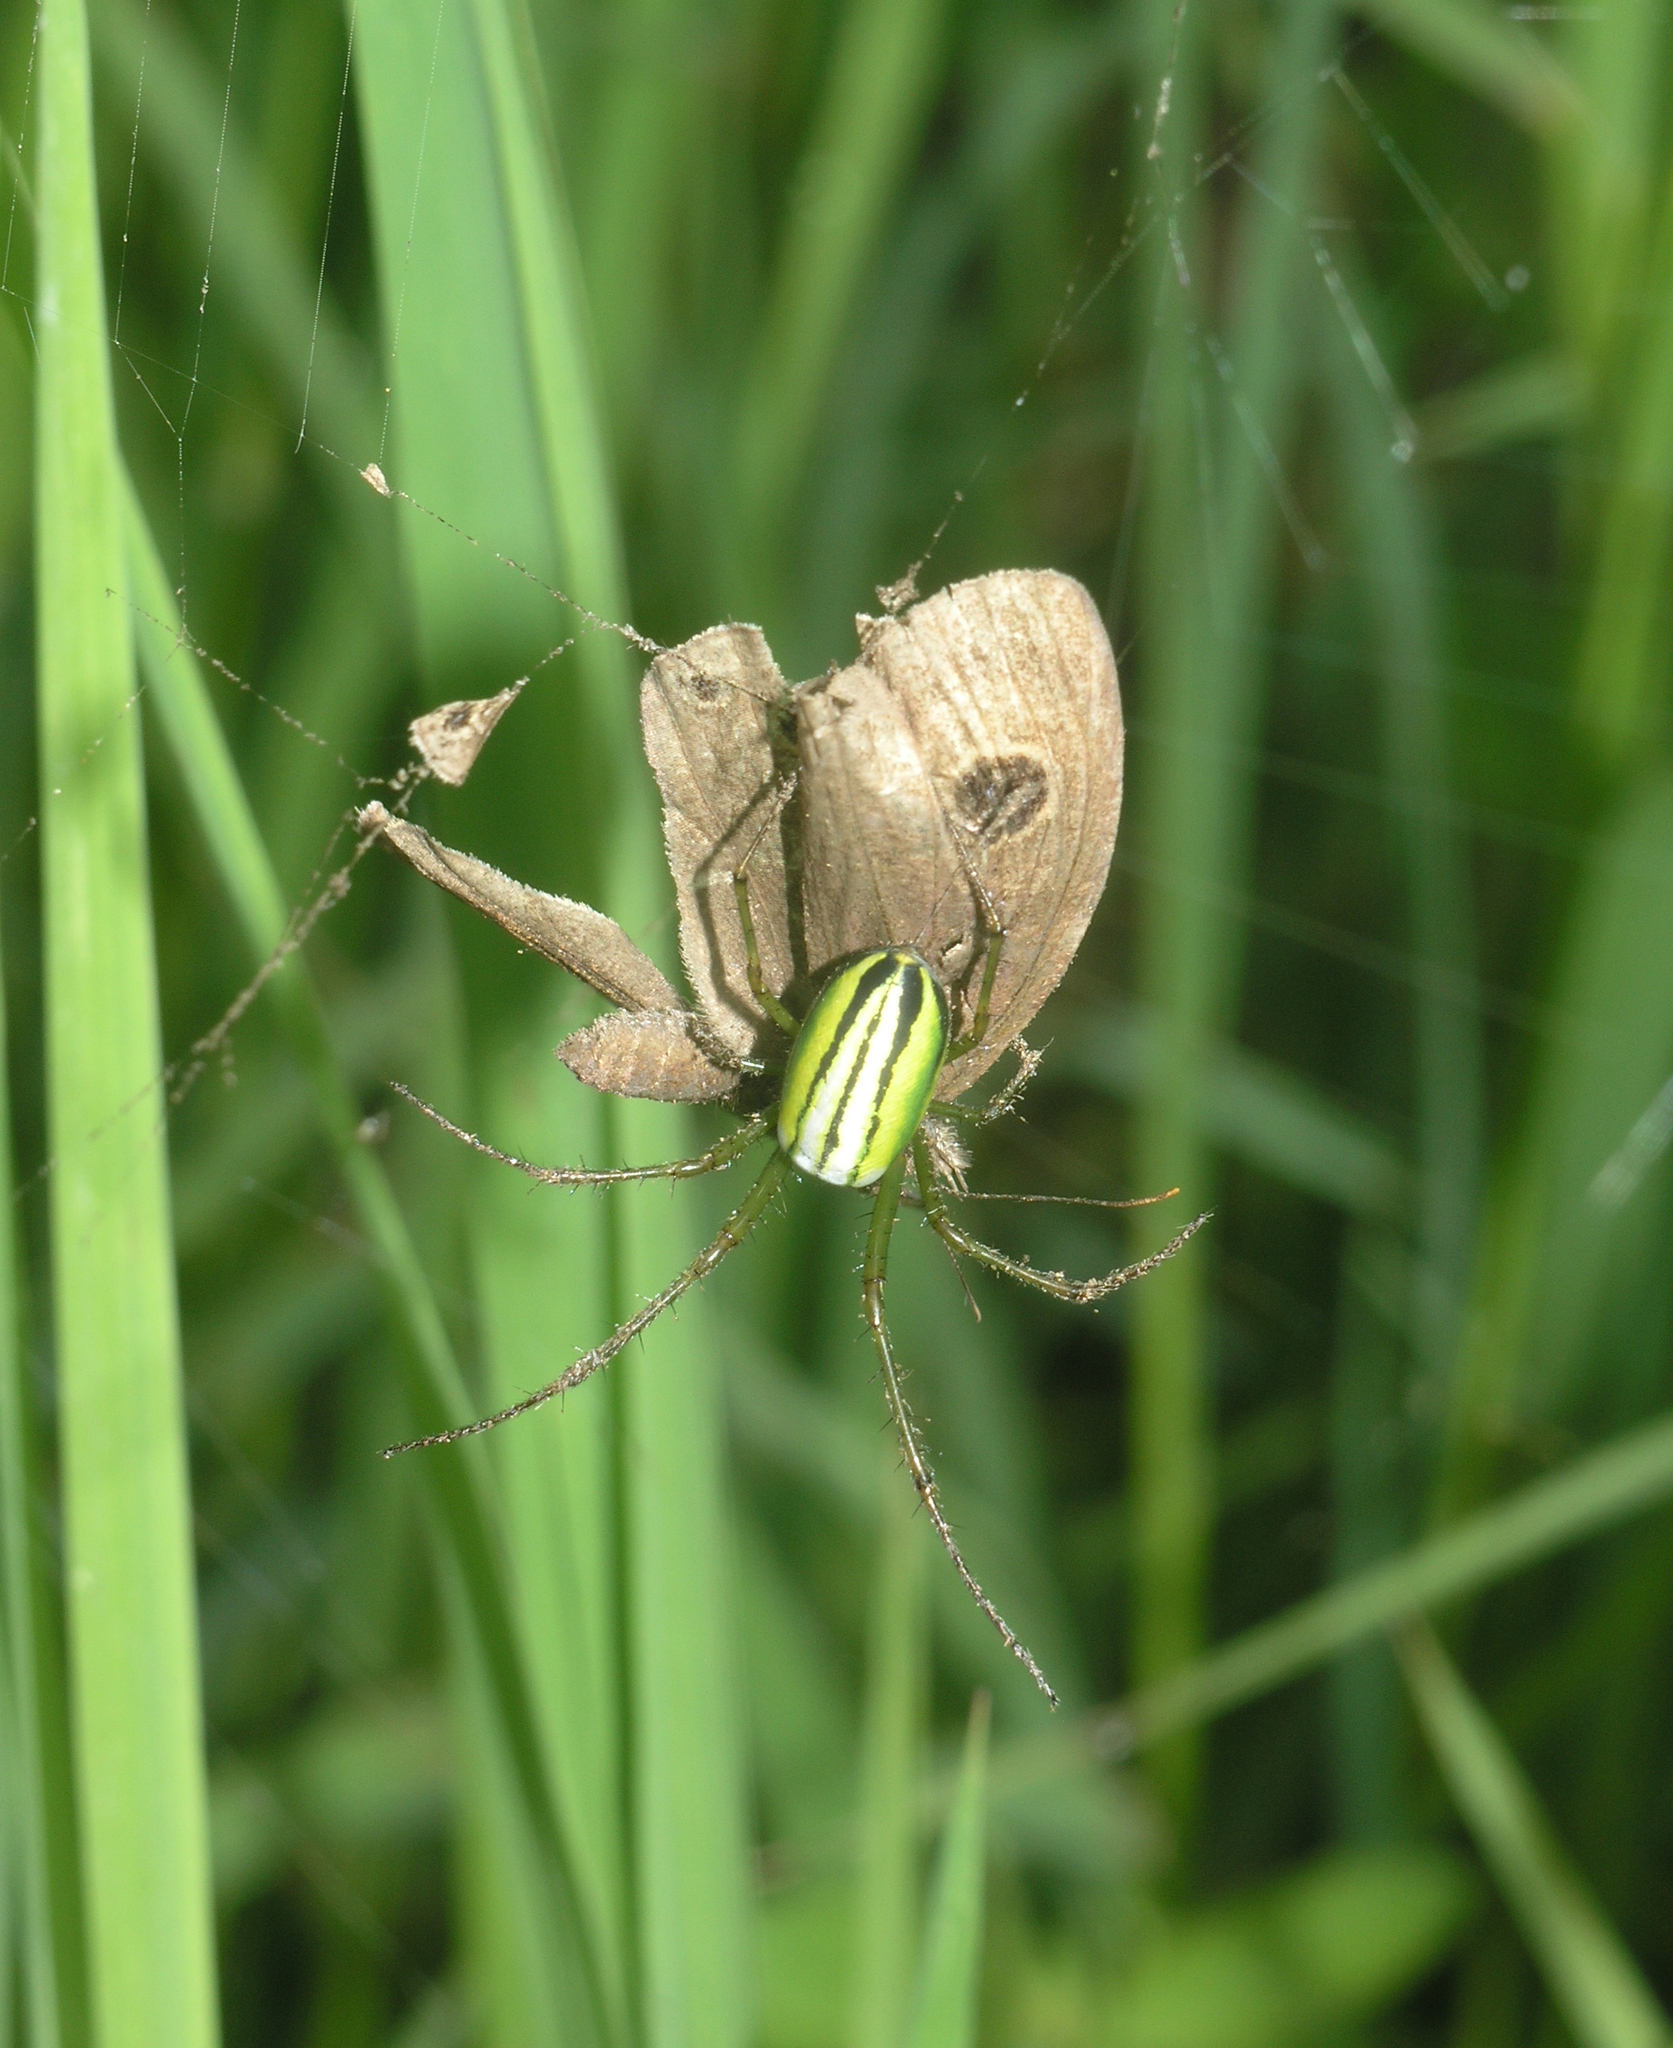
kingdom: Animalia
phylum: Arthropoda
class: Arachnida
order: Araneae
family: Tetragnathidae
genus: Leucauge
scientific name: Leucauge celebesiana
